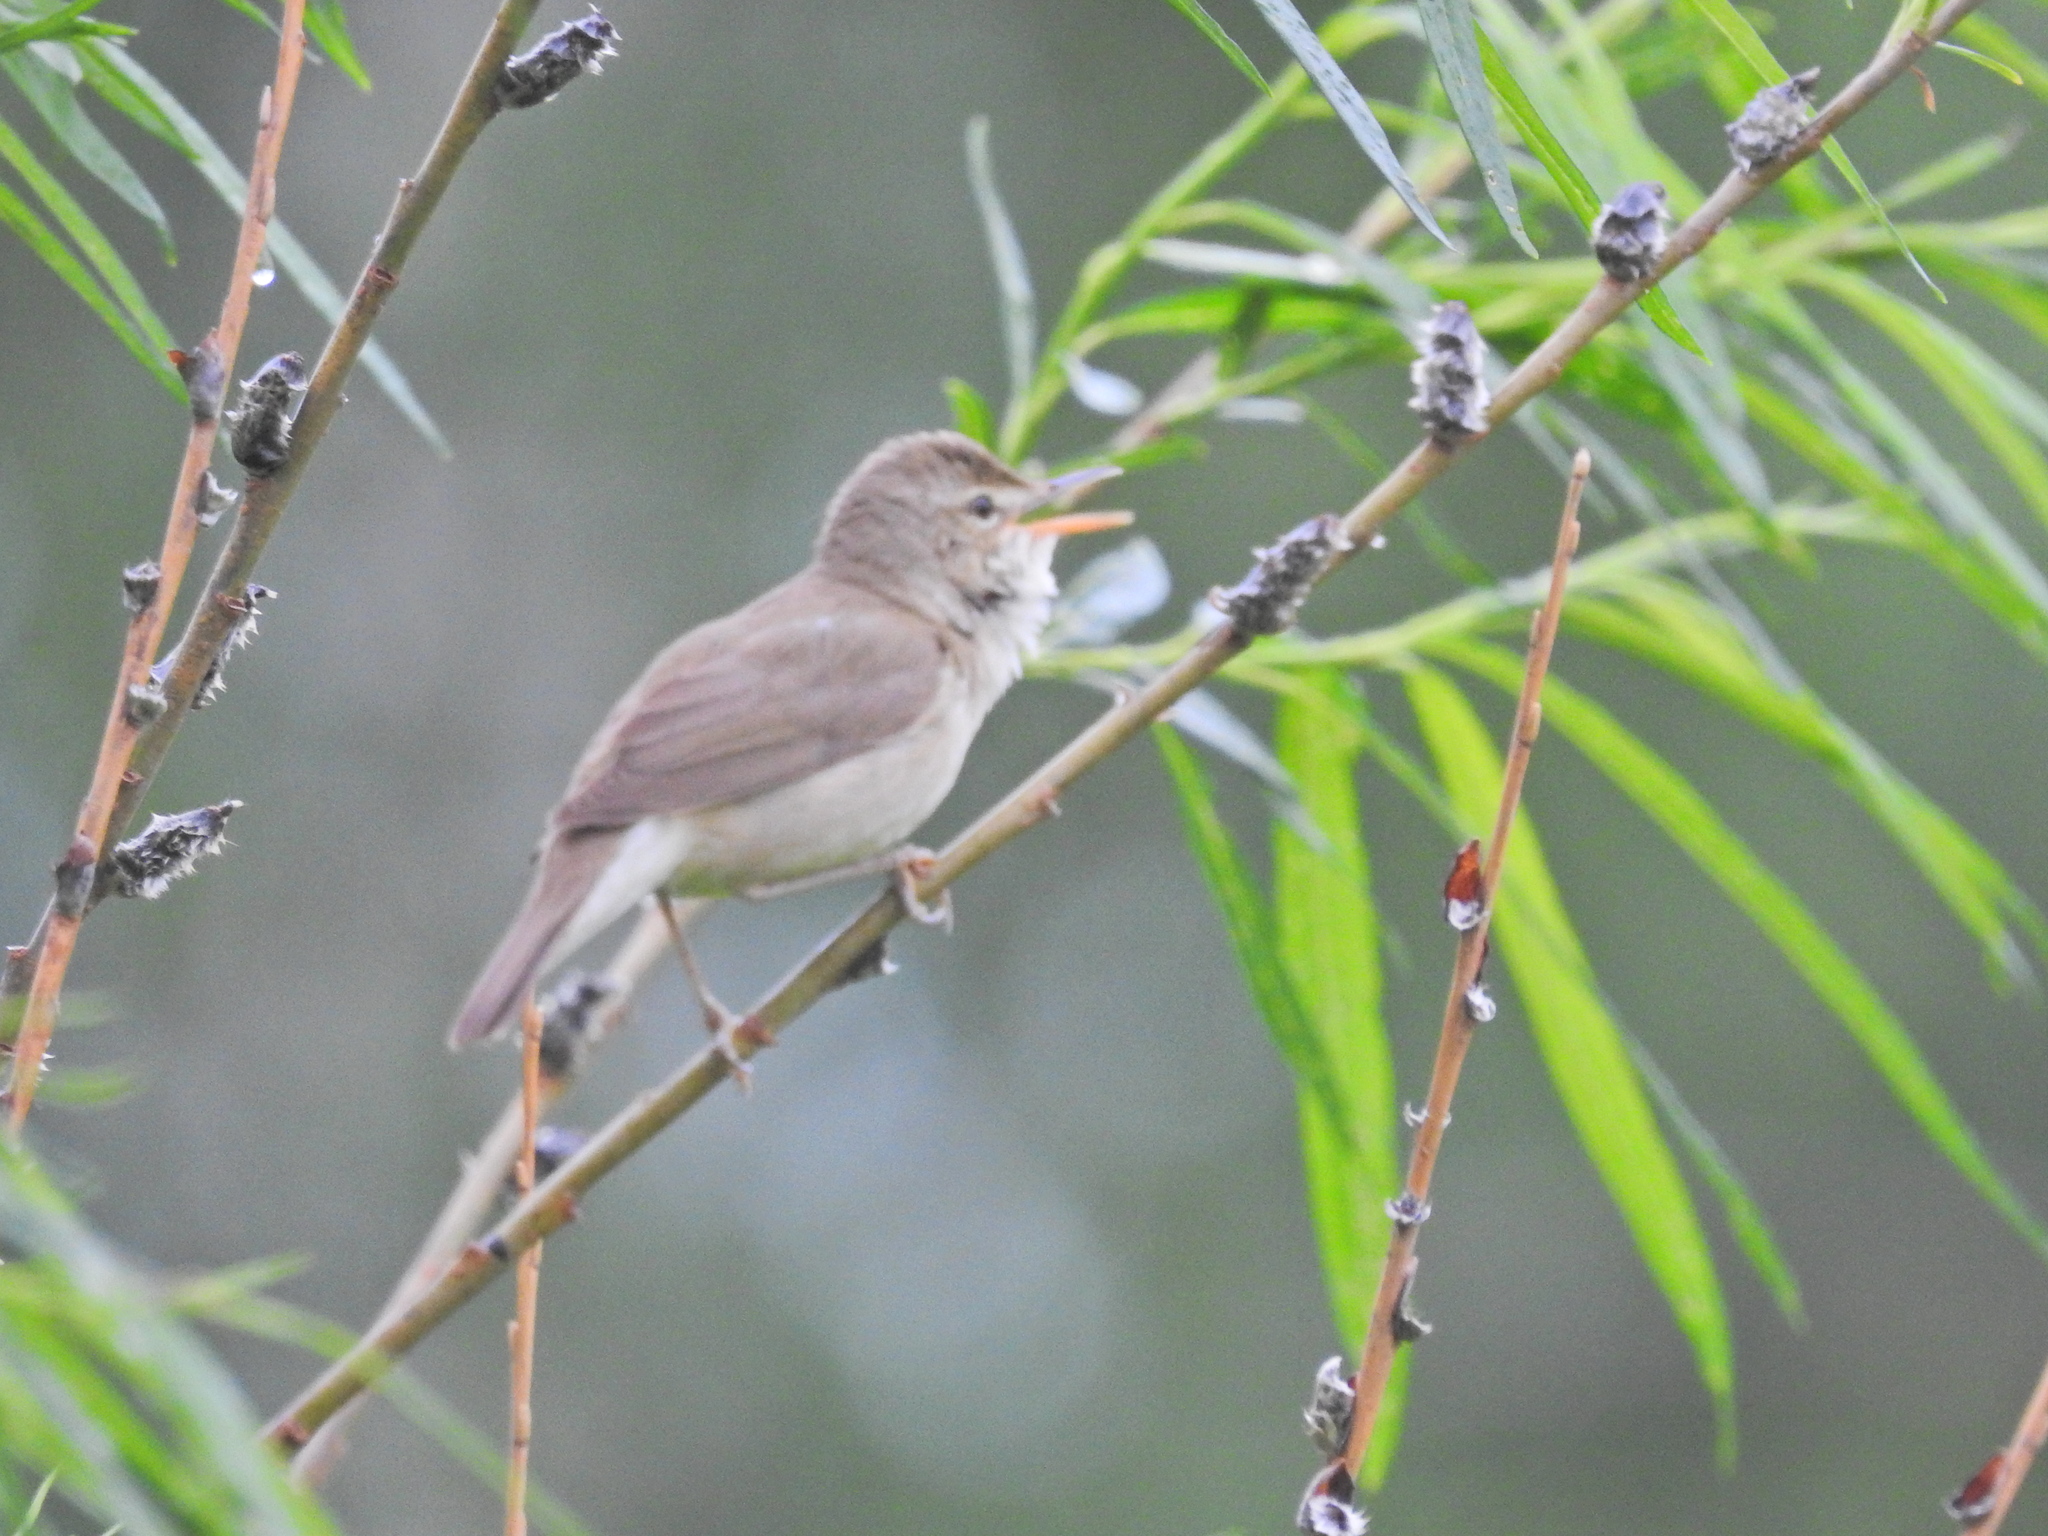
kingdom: Animalia
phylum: Chordata
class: Aves
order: Passeriformes
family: Acrocephalidae
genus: Acrocephalus
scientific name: Acrocephalus dumetorum
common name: Blyth's reed warbler
